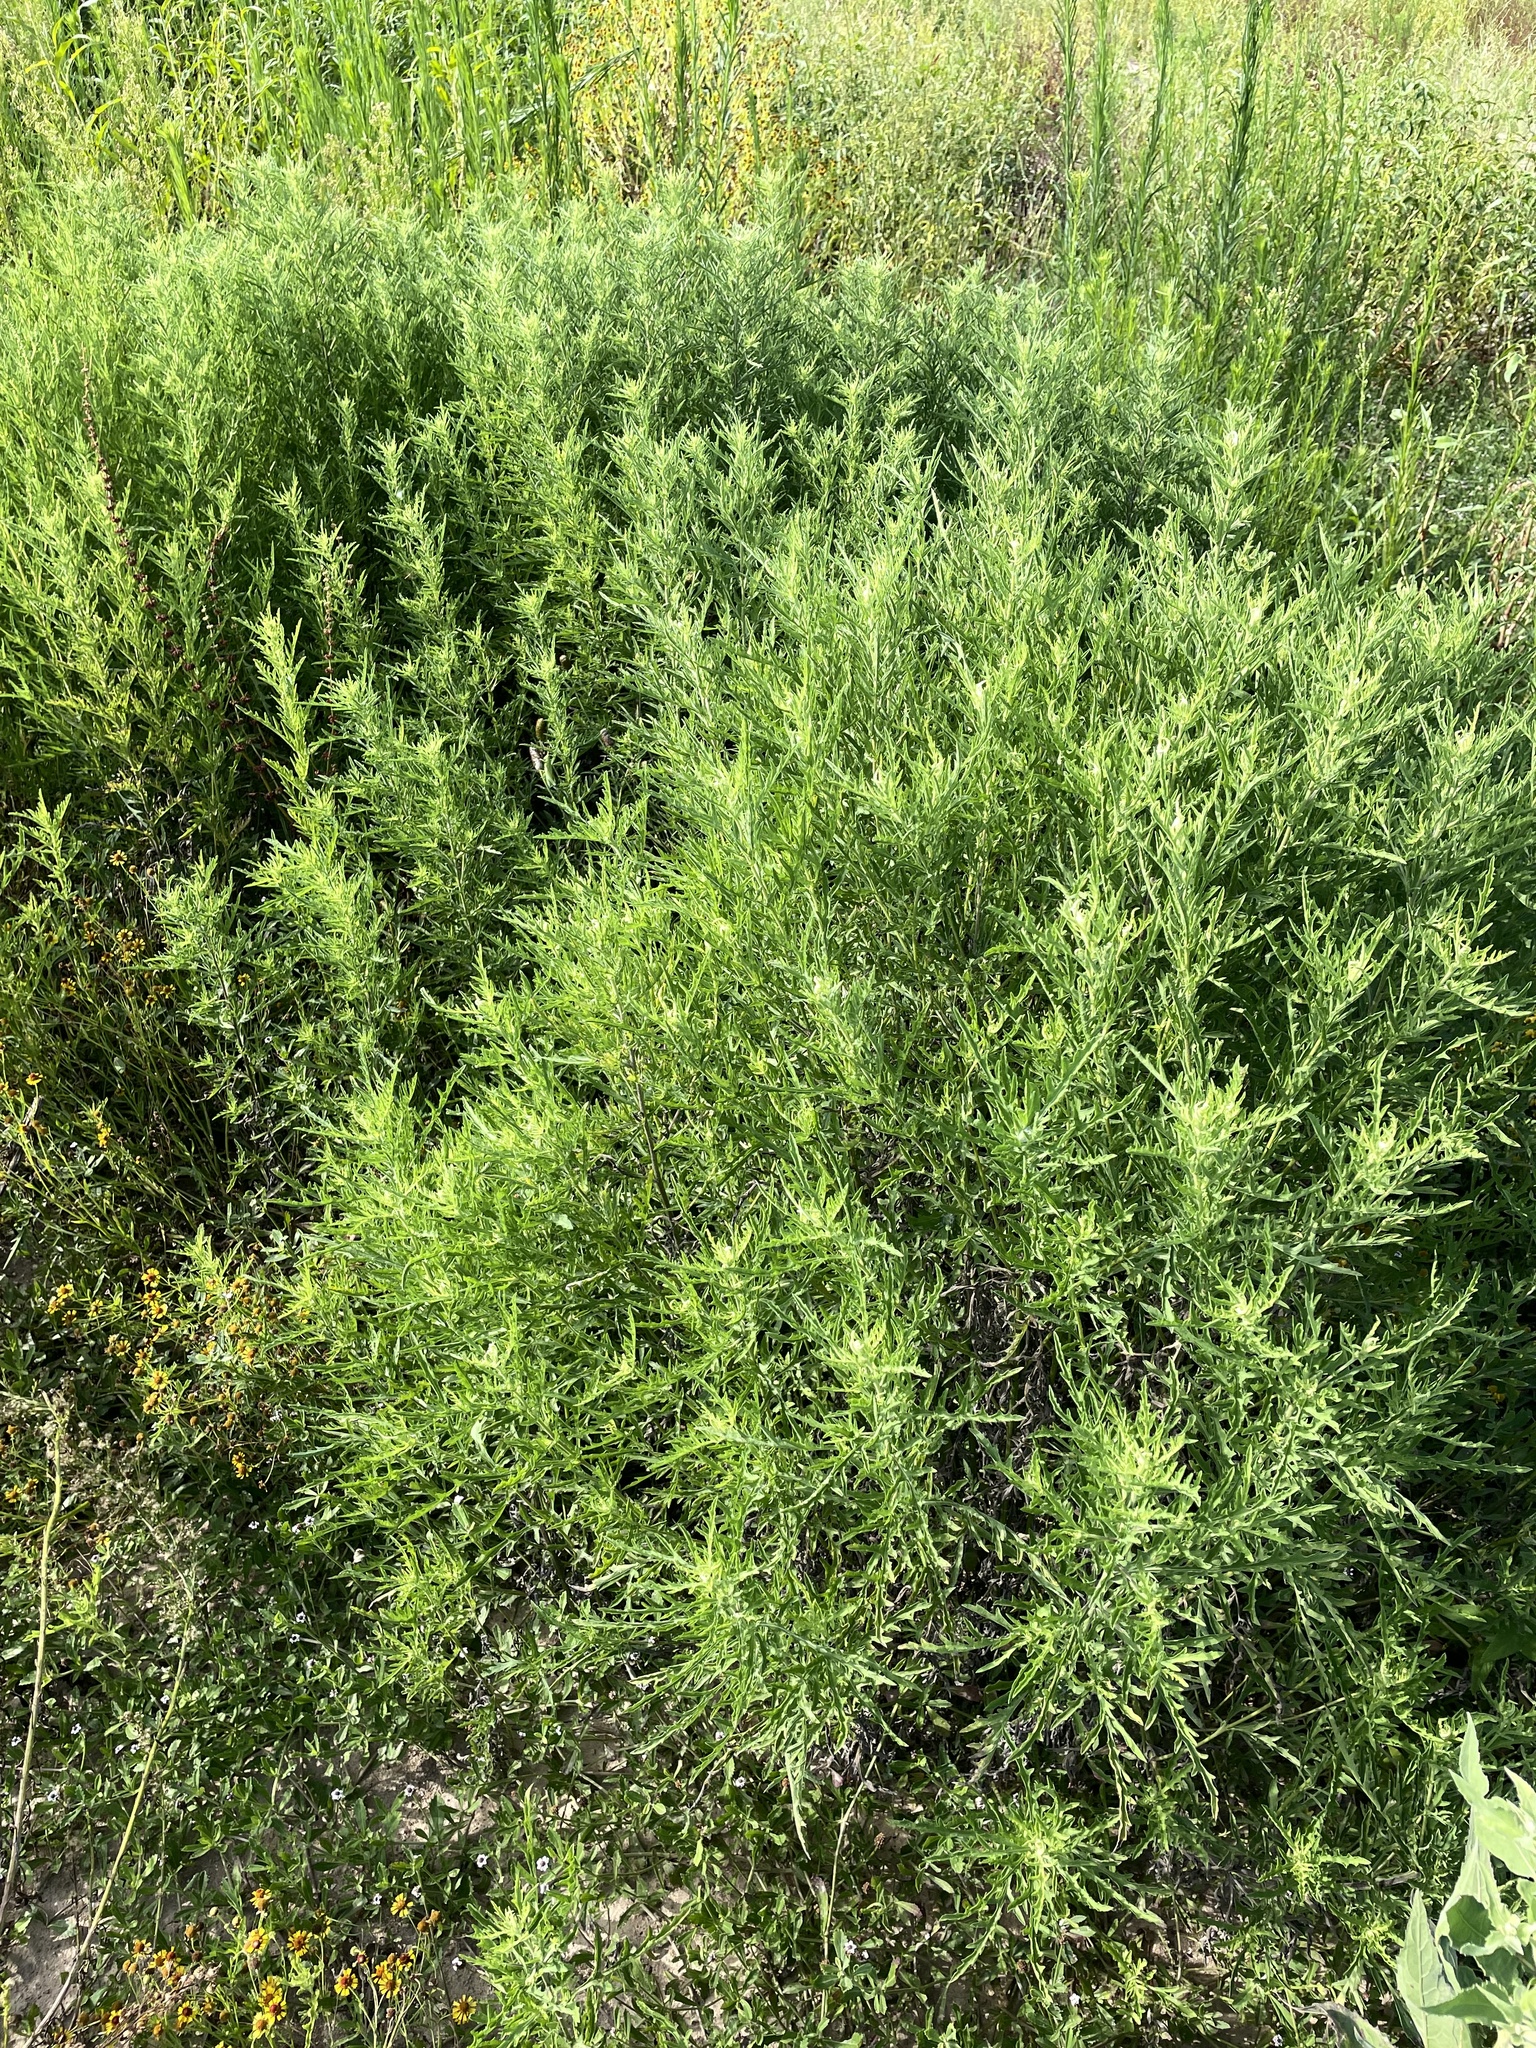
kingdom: Plantae
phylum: Tracheophyta
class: Magnoliopsida
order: Asterales
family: Asteraceae
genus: Ambrosia
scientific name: Ambrosia psilostachya
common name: Perennial ragweed
